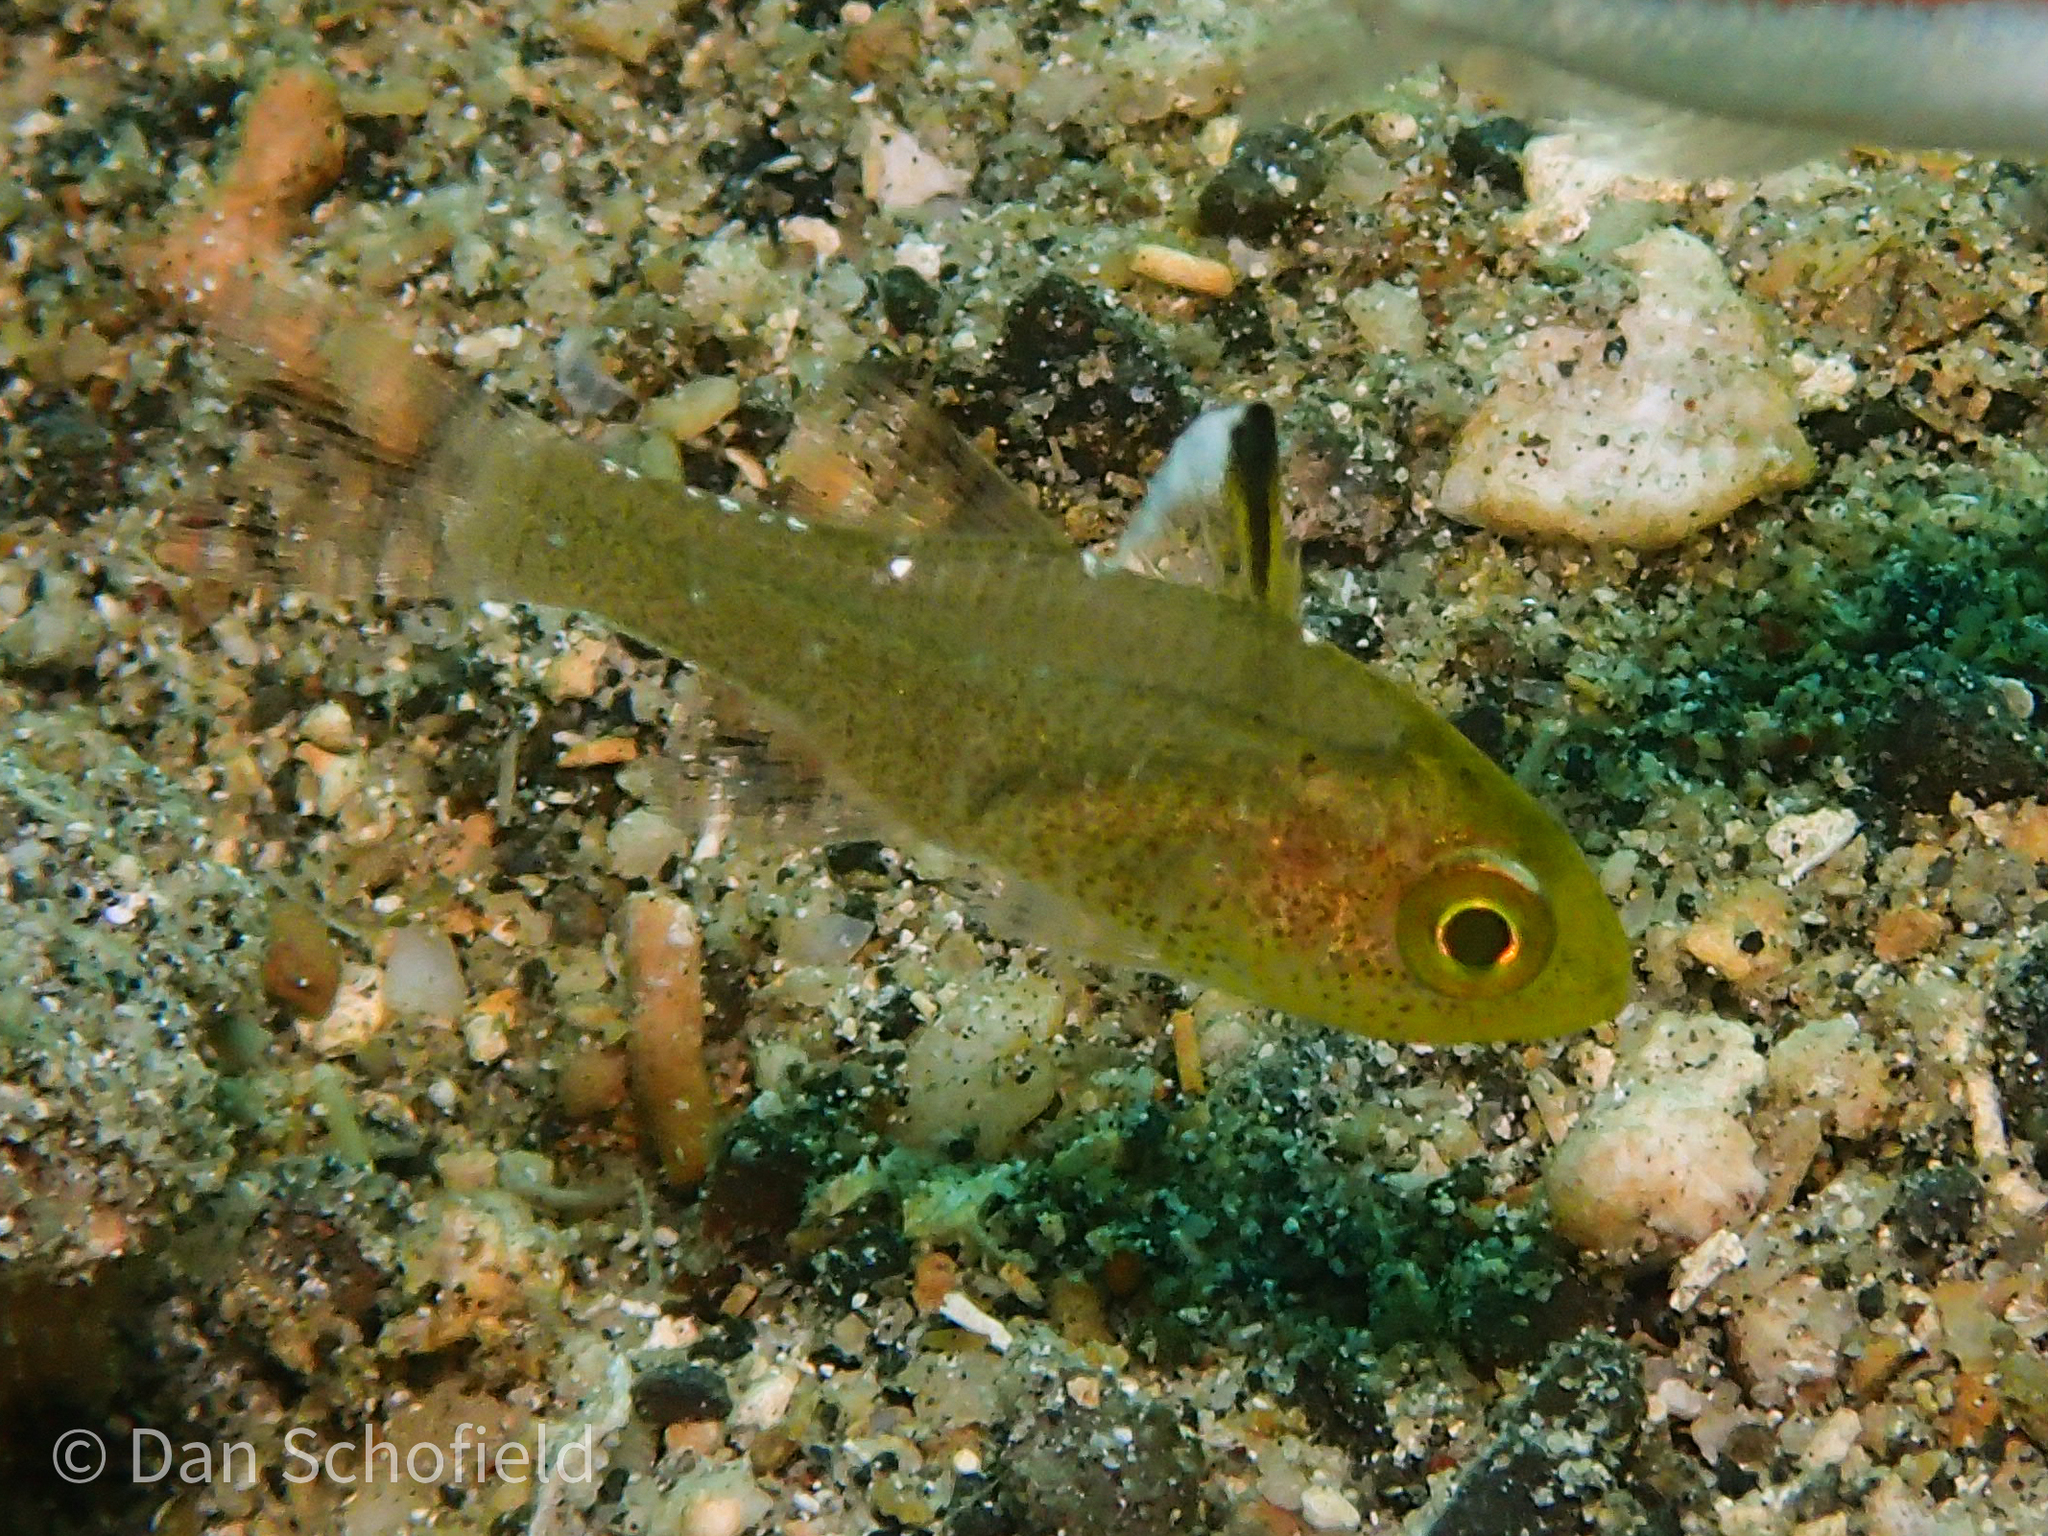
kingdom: Animalia
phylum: Chordata
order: Perciformes
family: Apogonidae
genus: Ostorhinchus
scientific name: Ostorhinchus hoevenii
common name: Flag-fin cardinal
